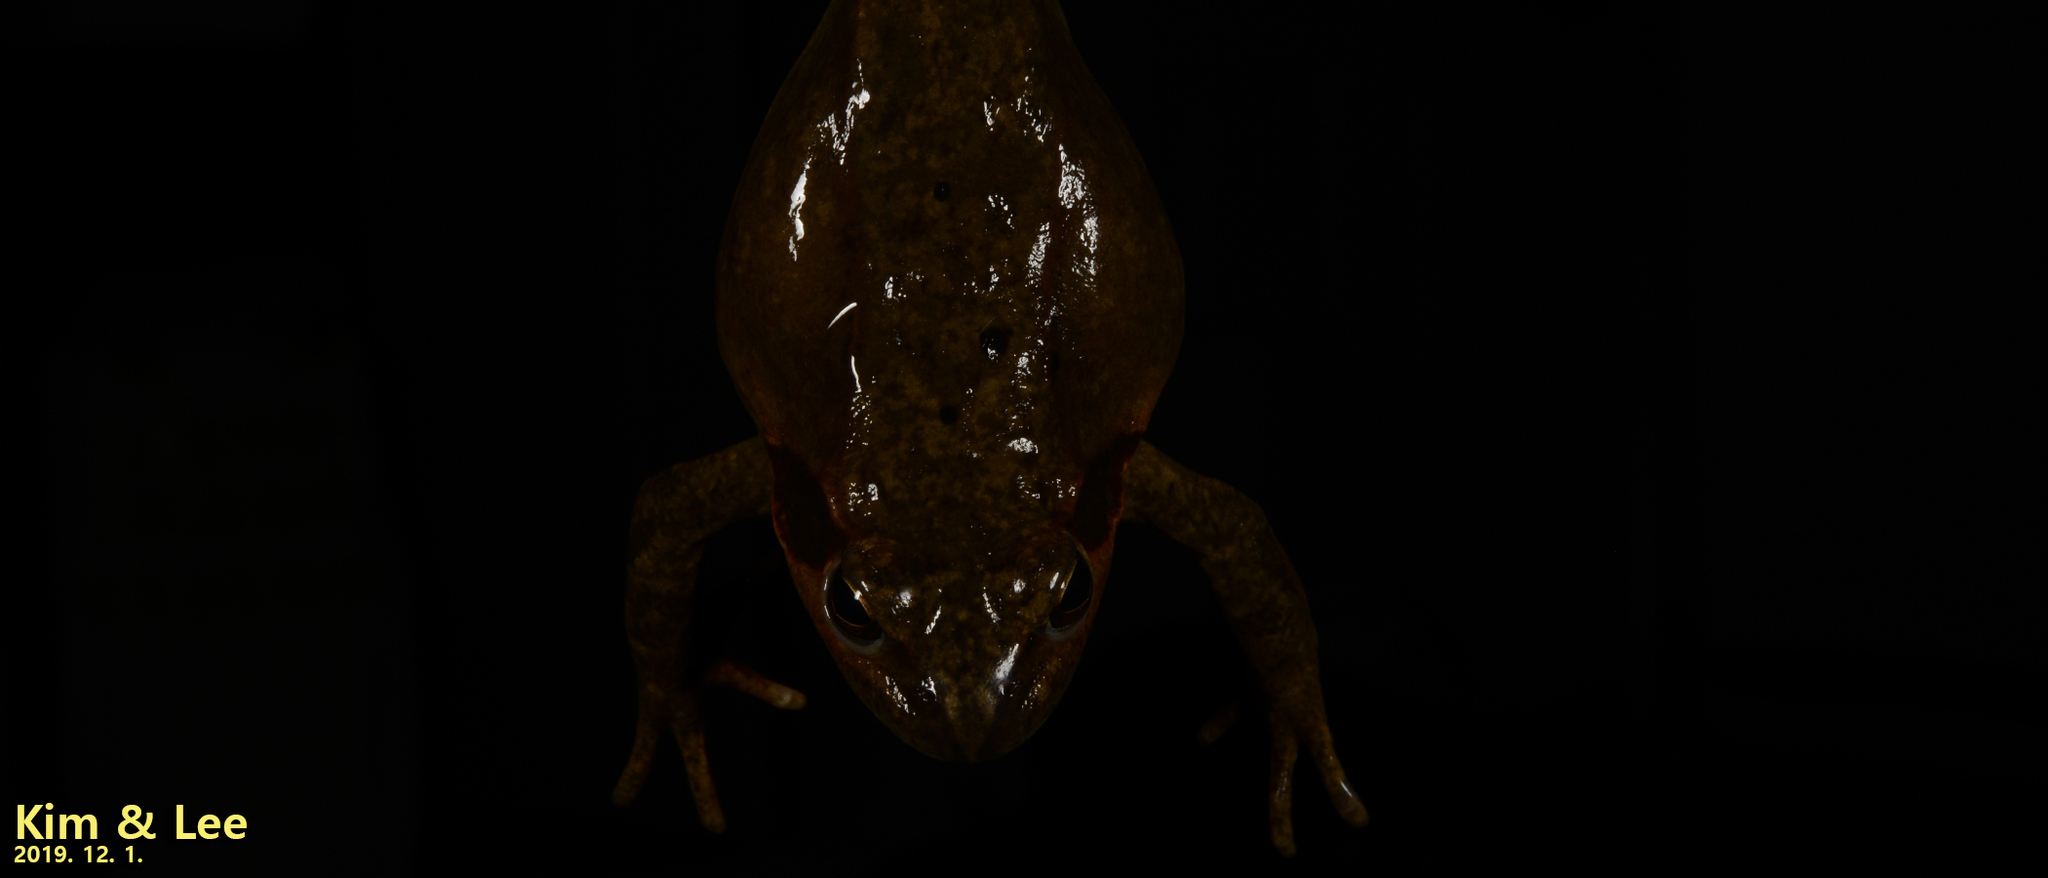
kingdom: Animalia
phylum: Chordata
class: Amphibia
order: Anura
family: Ranidae
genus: Rana
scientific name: Rana dybowskii
